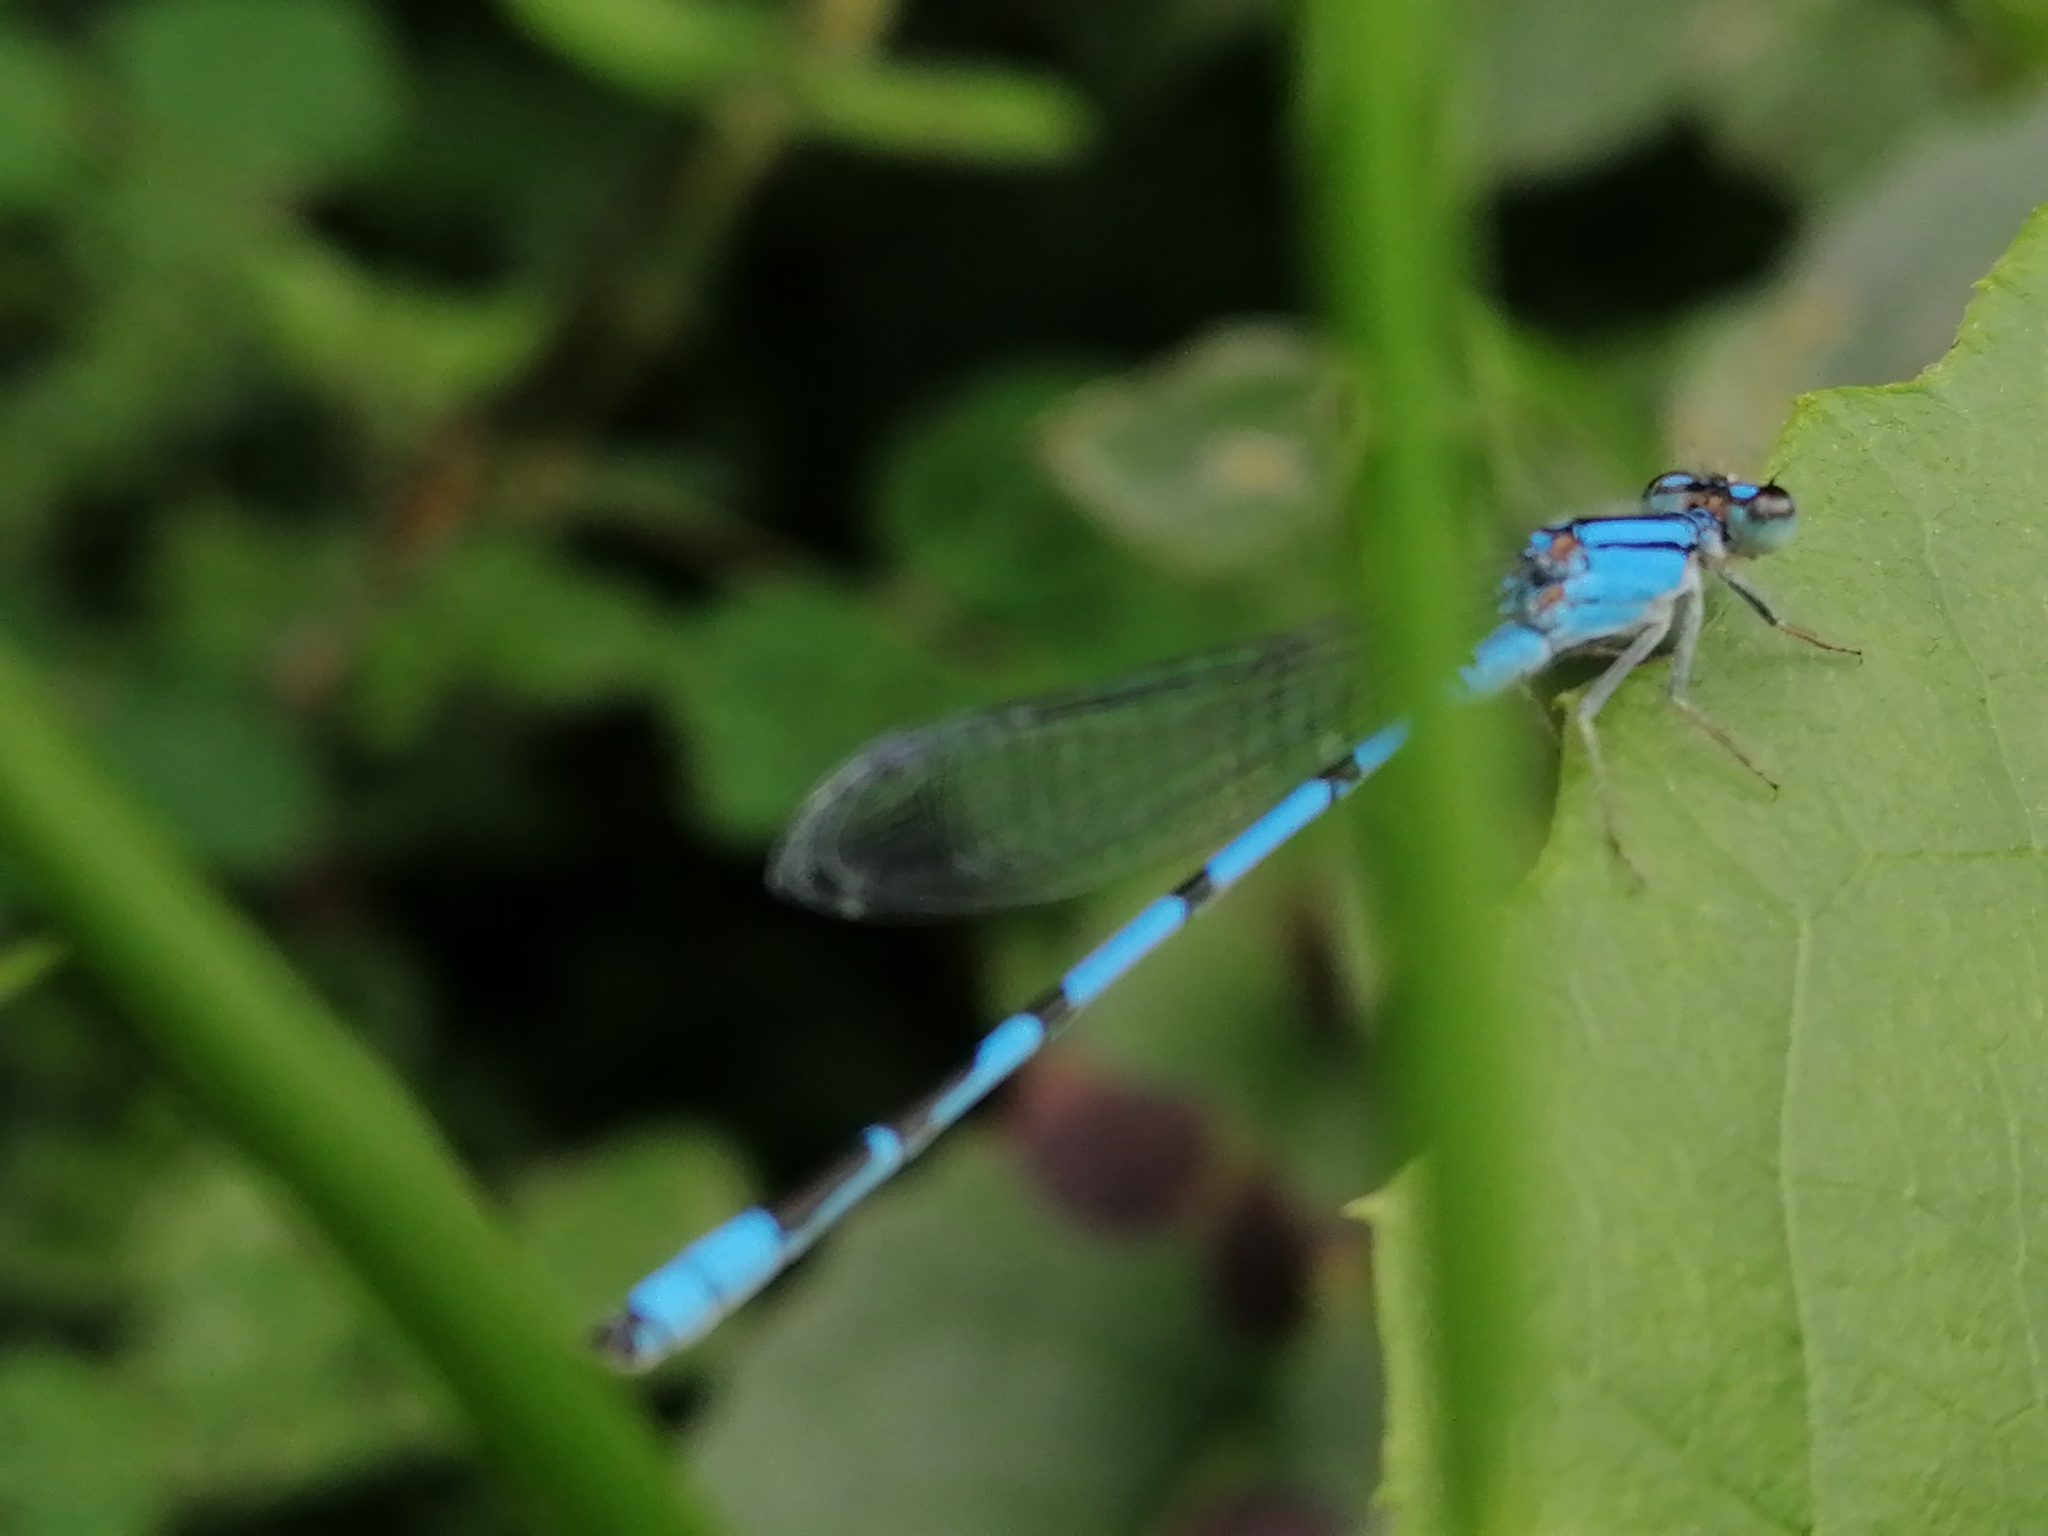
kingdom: Animalia
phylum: Arthropoda
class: Insecta
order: Odonata
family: Coenagrionidae
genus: Enallagma
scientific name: Enallagma civile
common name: Damselfly
